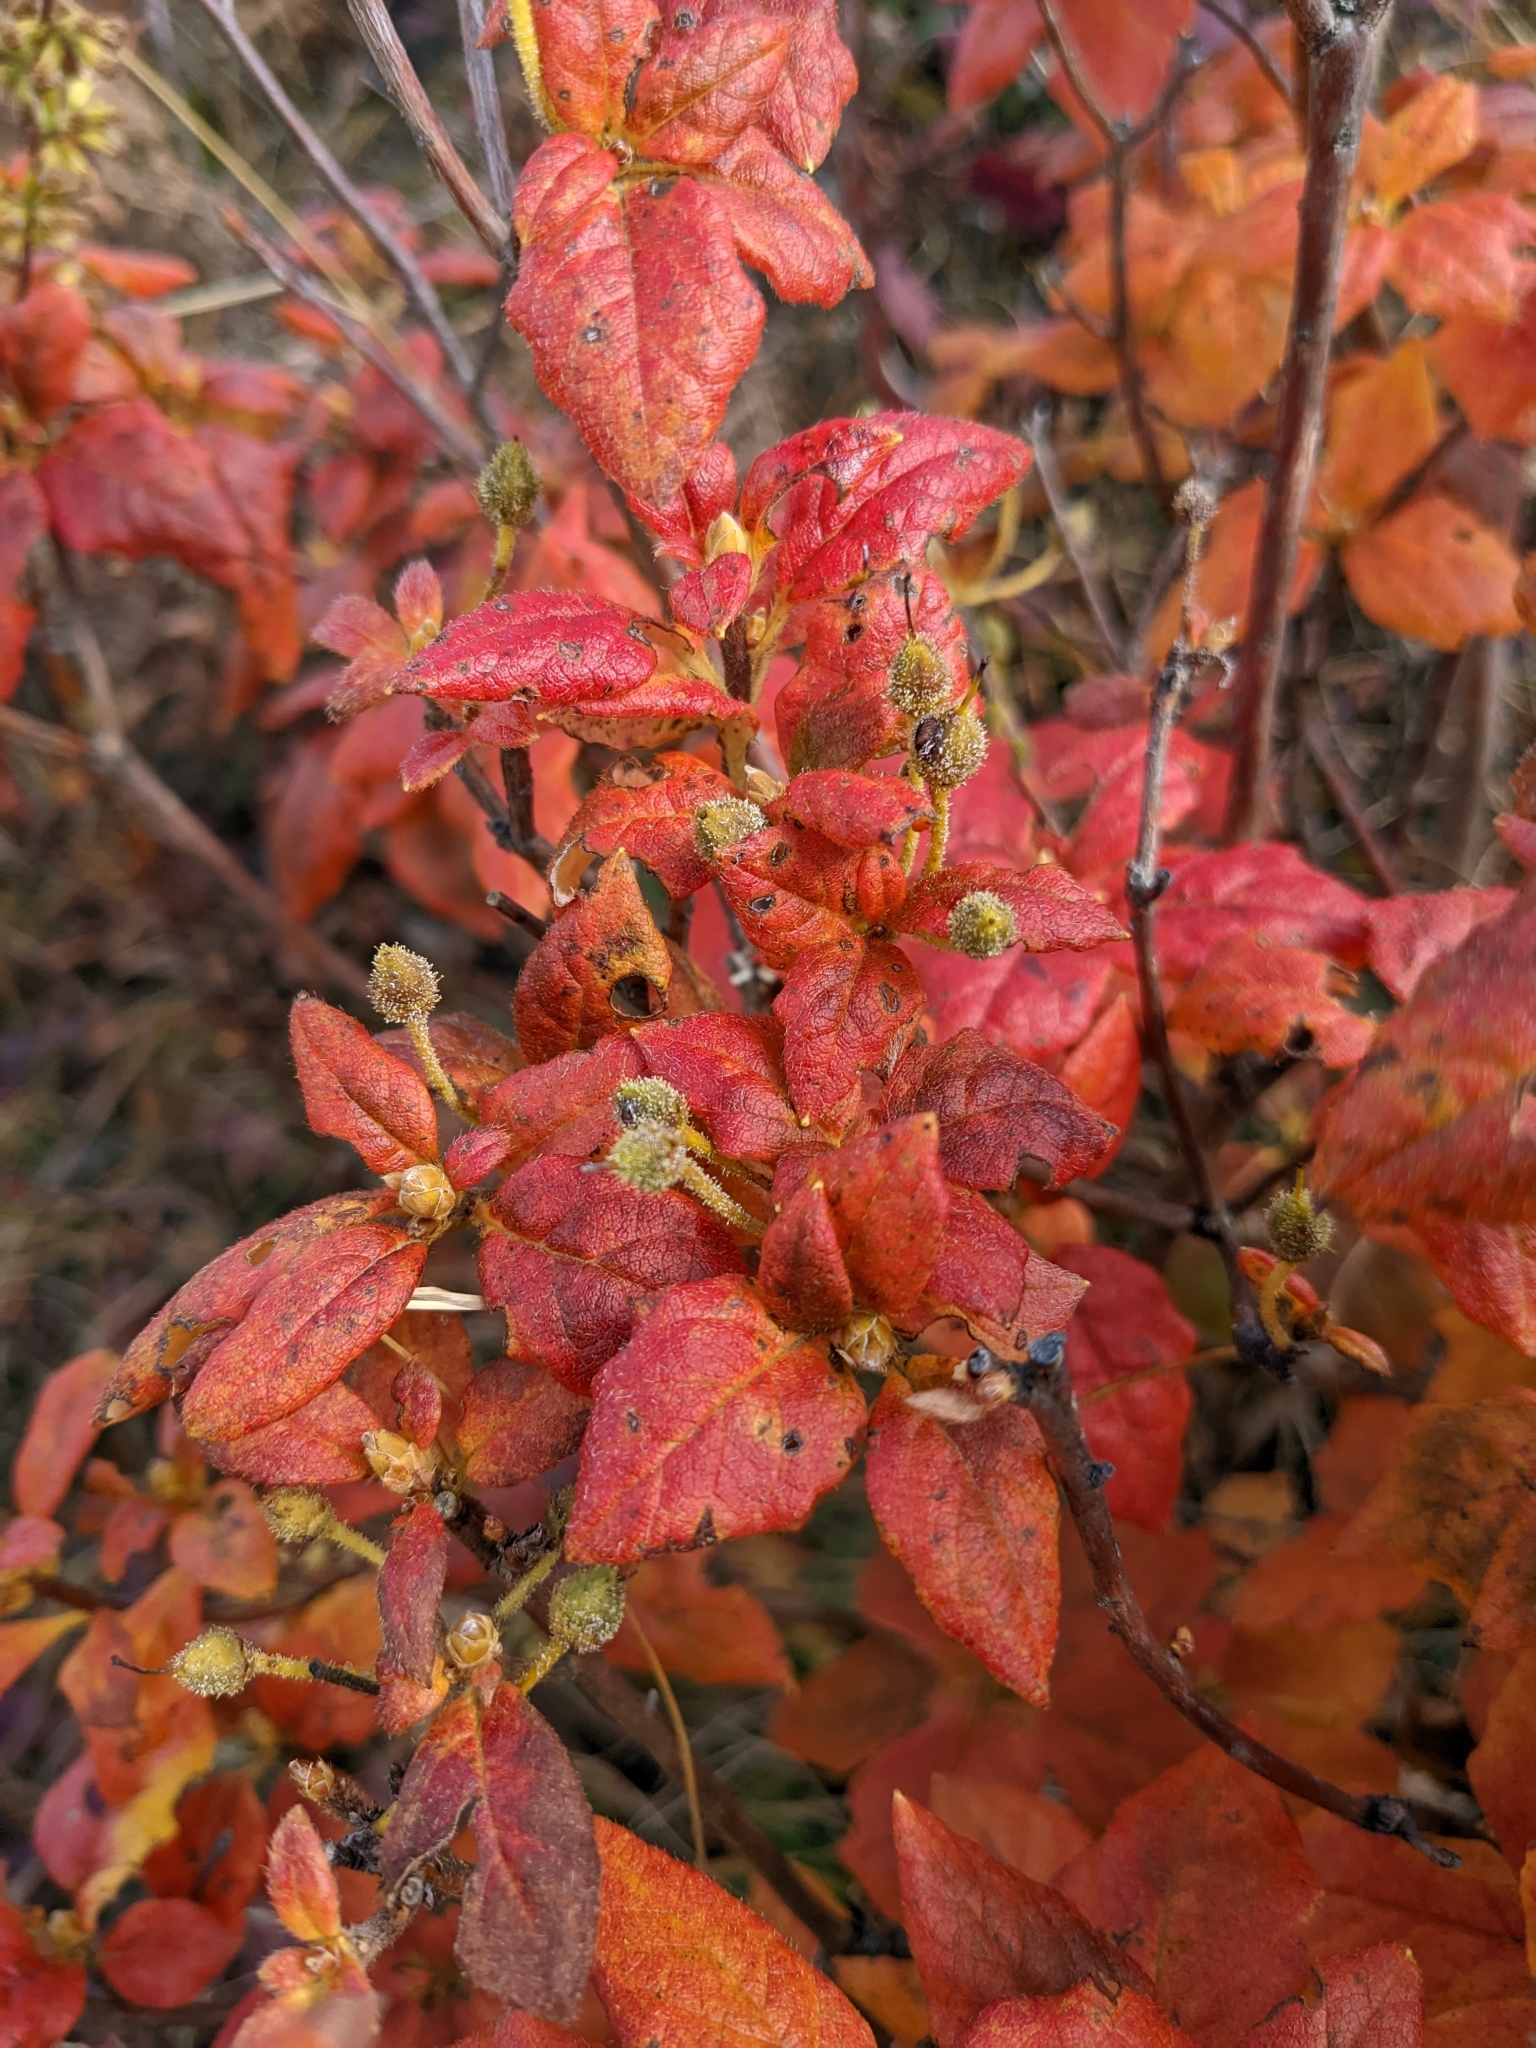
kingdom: Plantae
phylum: Tracheophyta
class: Magnoliopsida
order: Ericales
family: Ericaceae
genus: Rhododendron
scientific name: Rhododendron pilosum
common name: Hairy minniebush
